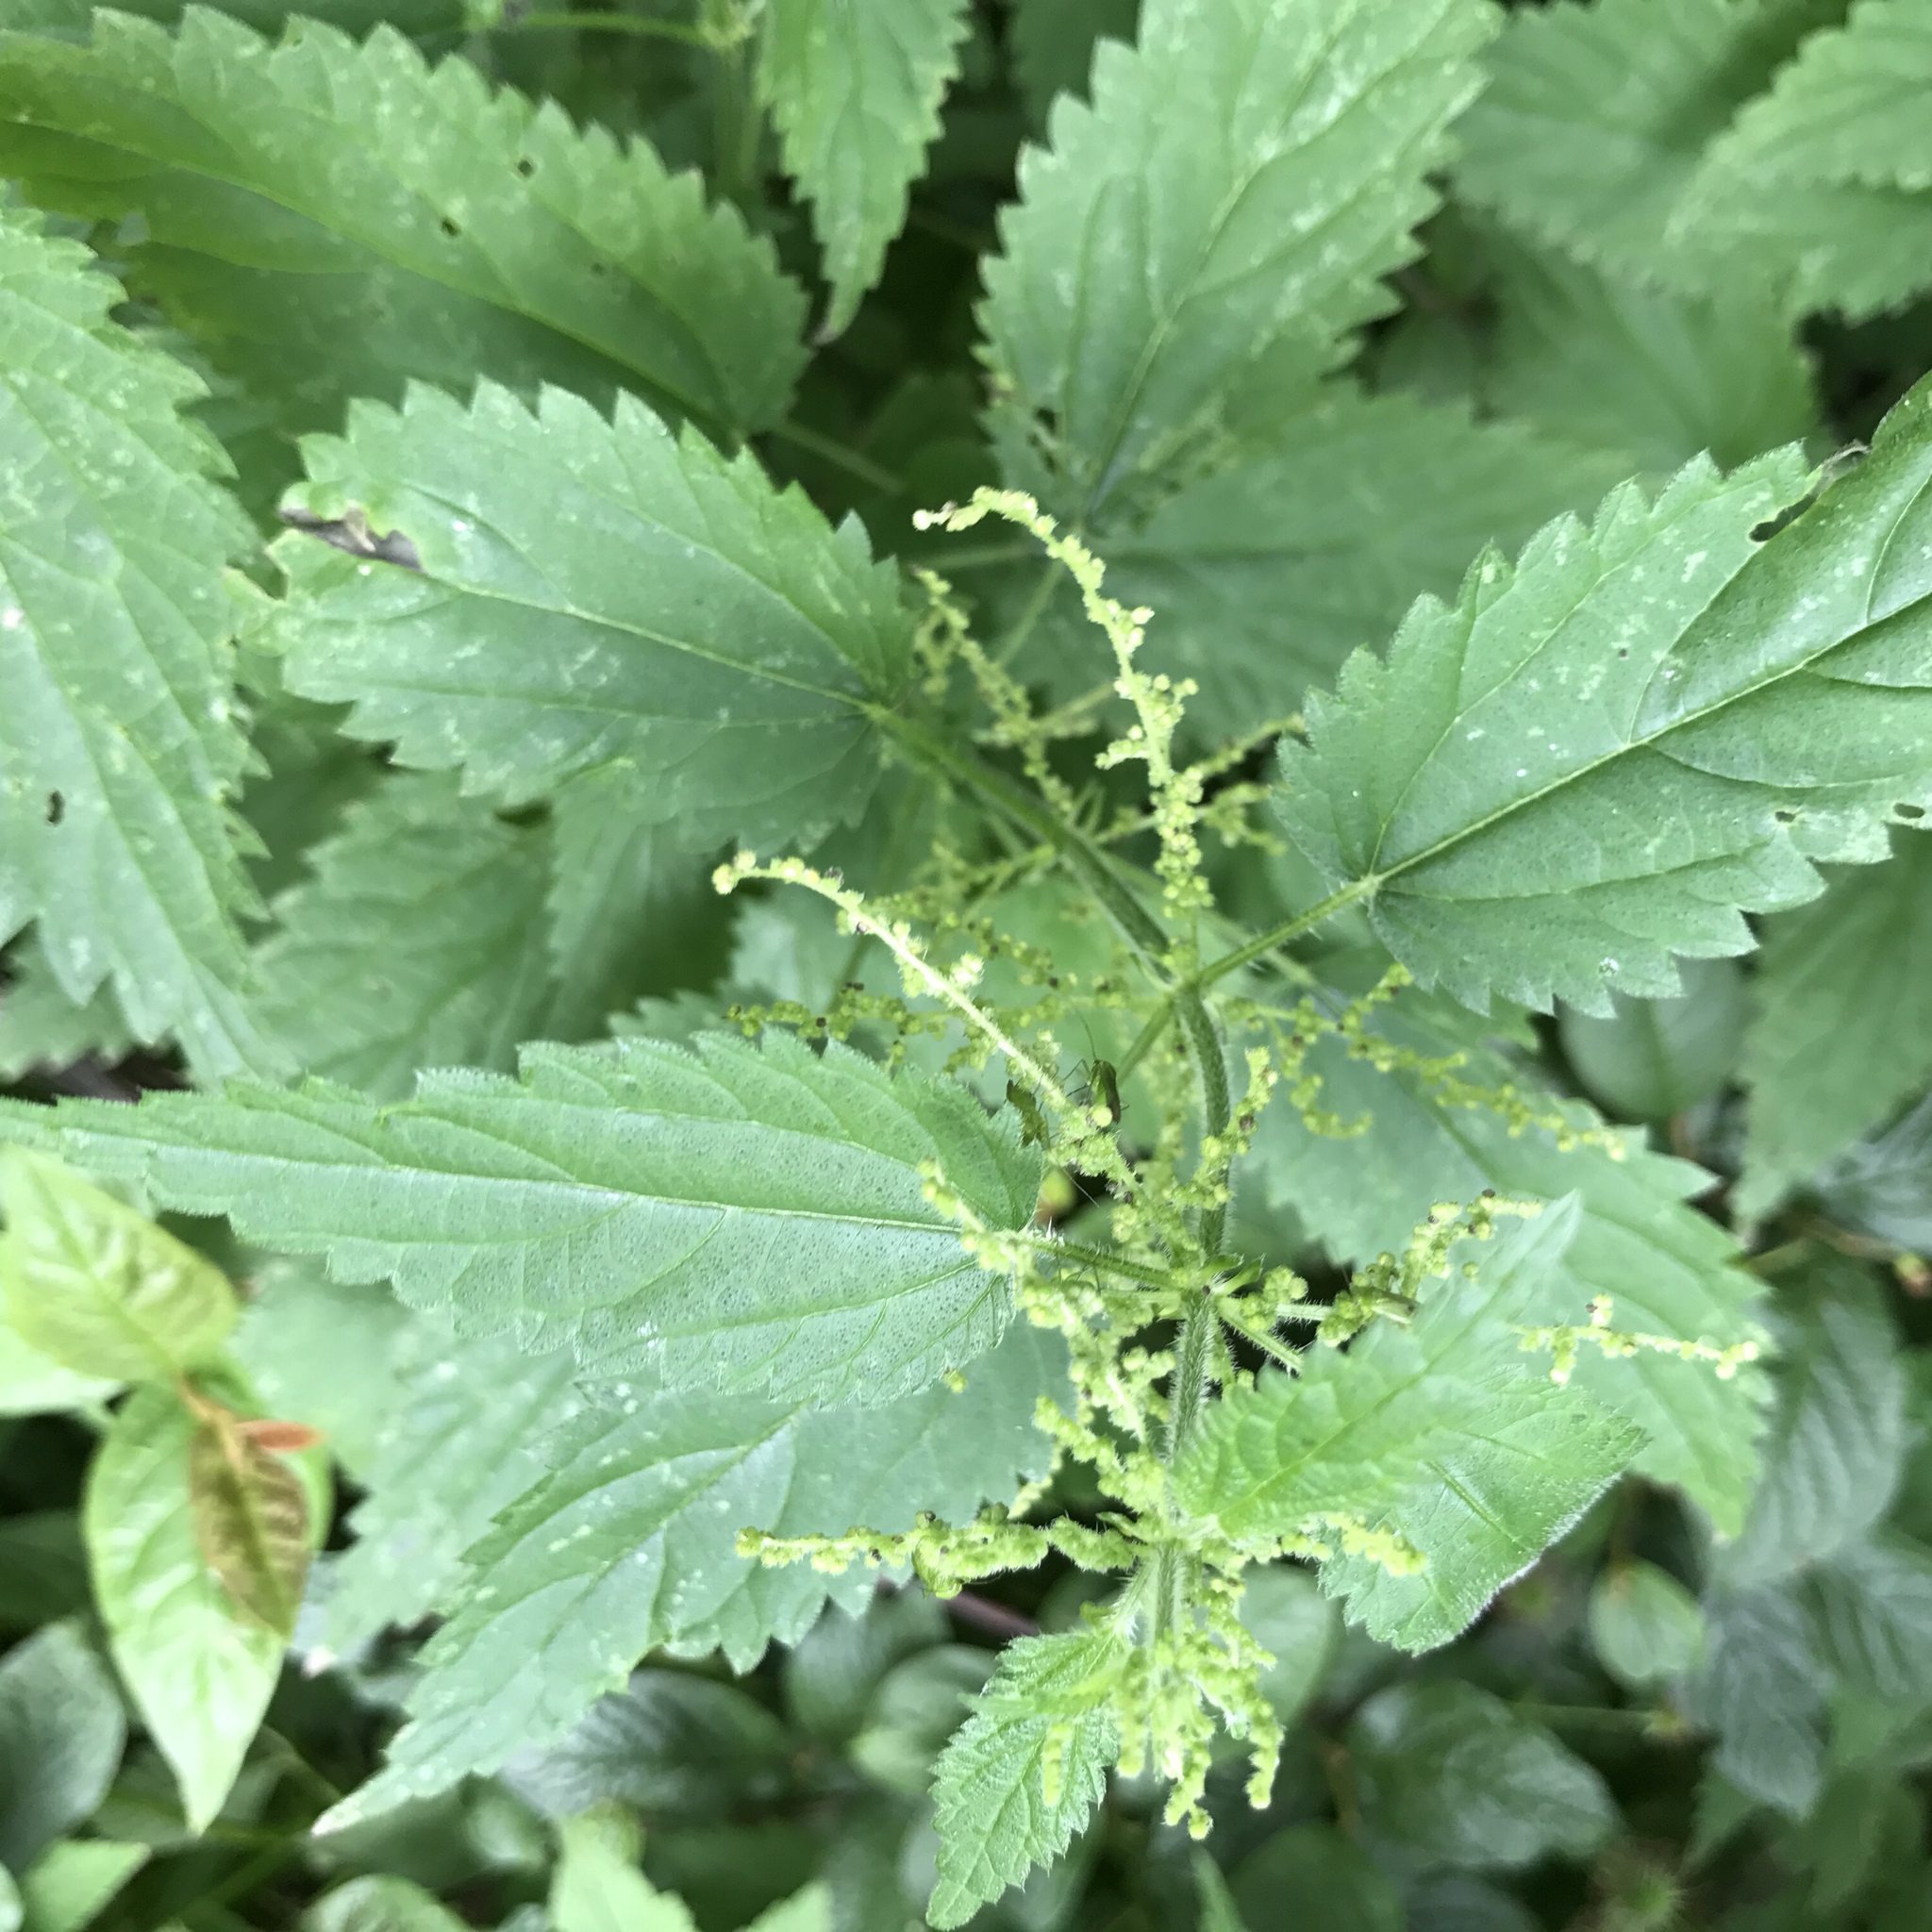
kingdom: Plantae
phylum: Tracheophyta
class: Magnoliopsida
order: Rosales
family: Urticaceae
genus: Urtica
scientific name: Urtica dioica
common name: Common nettle
